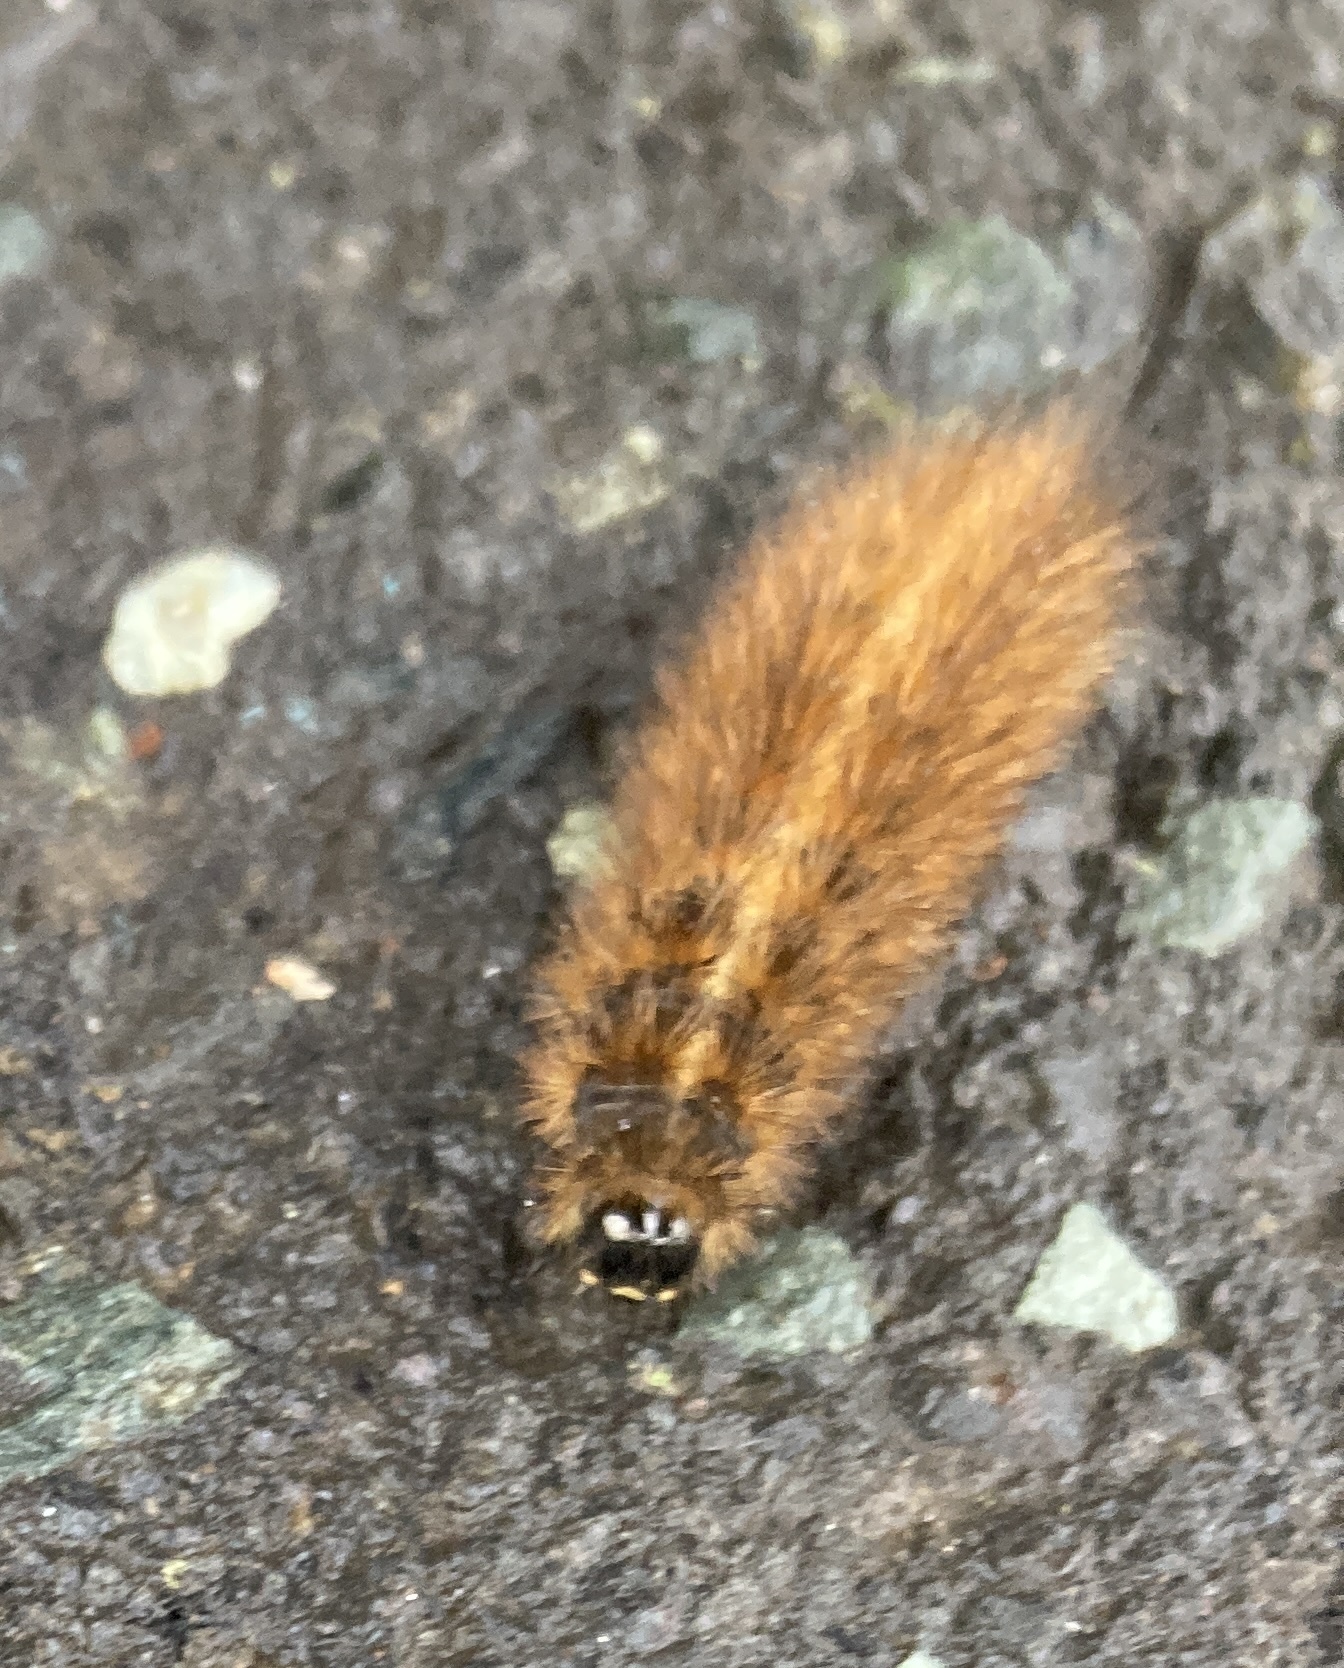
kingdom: Animalia
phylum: Arthropoda
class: Insecta
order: Lepidoptera
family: Erebidae
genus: Phragmatobia
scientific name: Phragmatobia fuliginosa
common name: Ruby tiger
